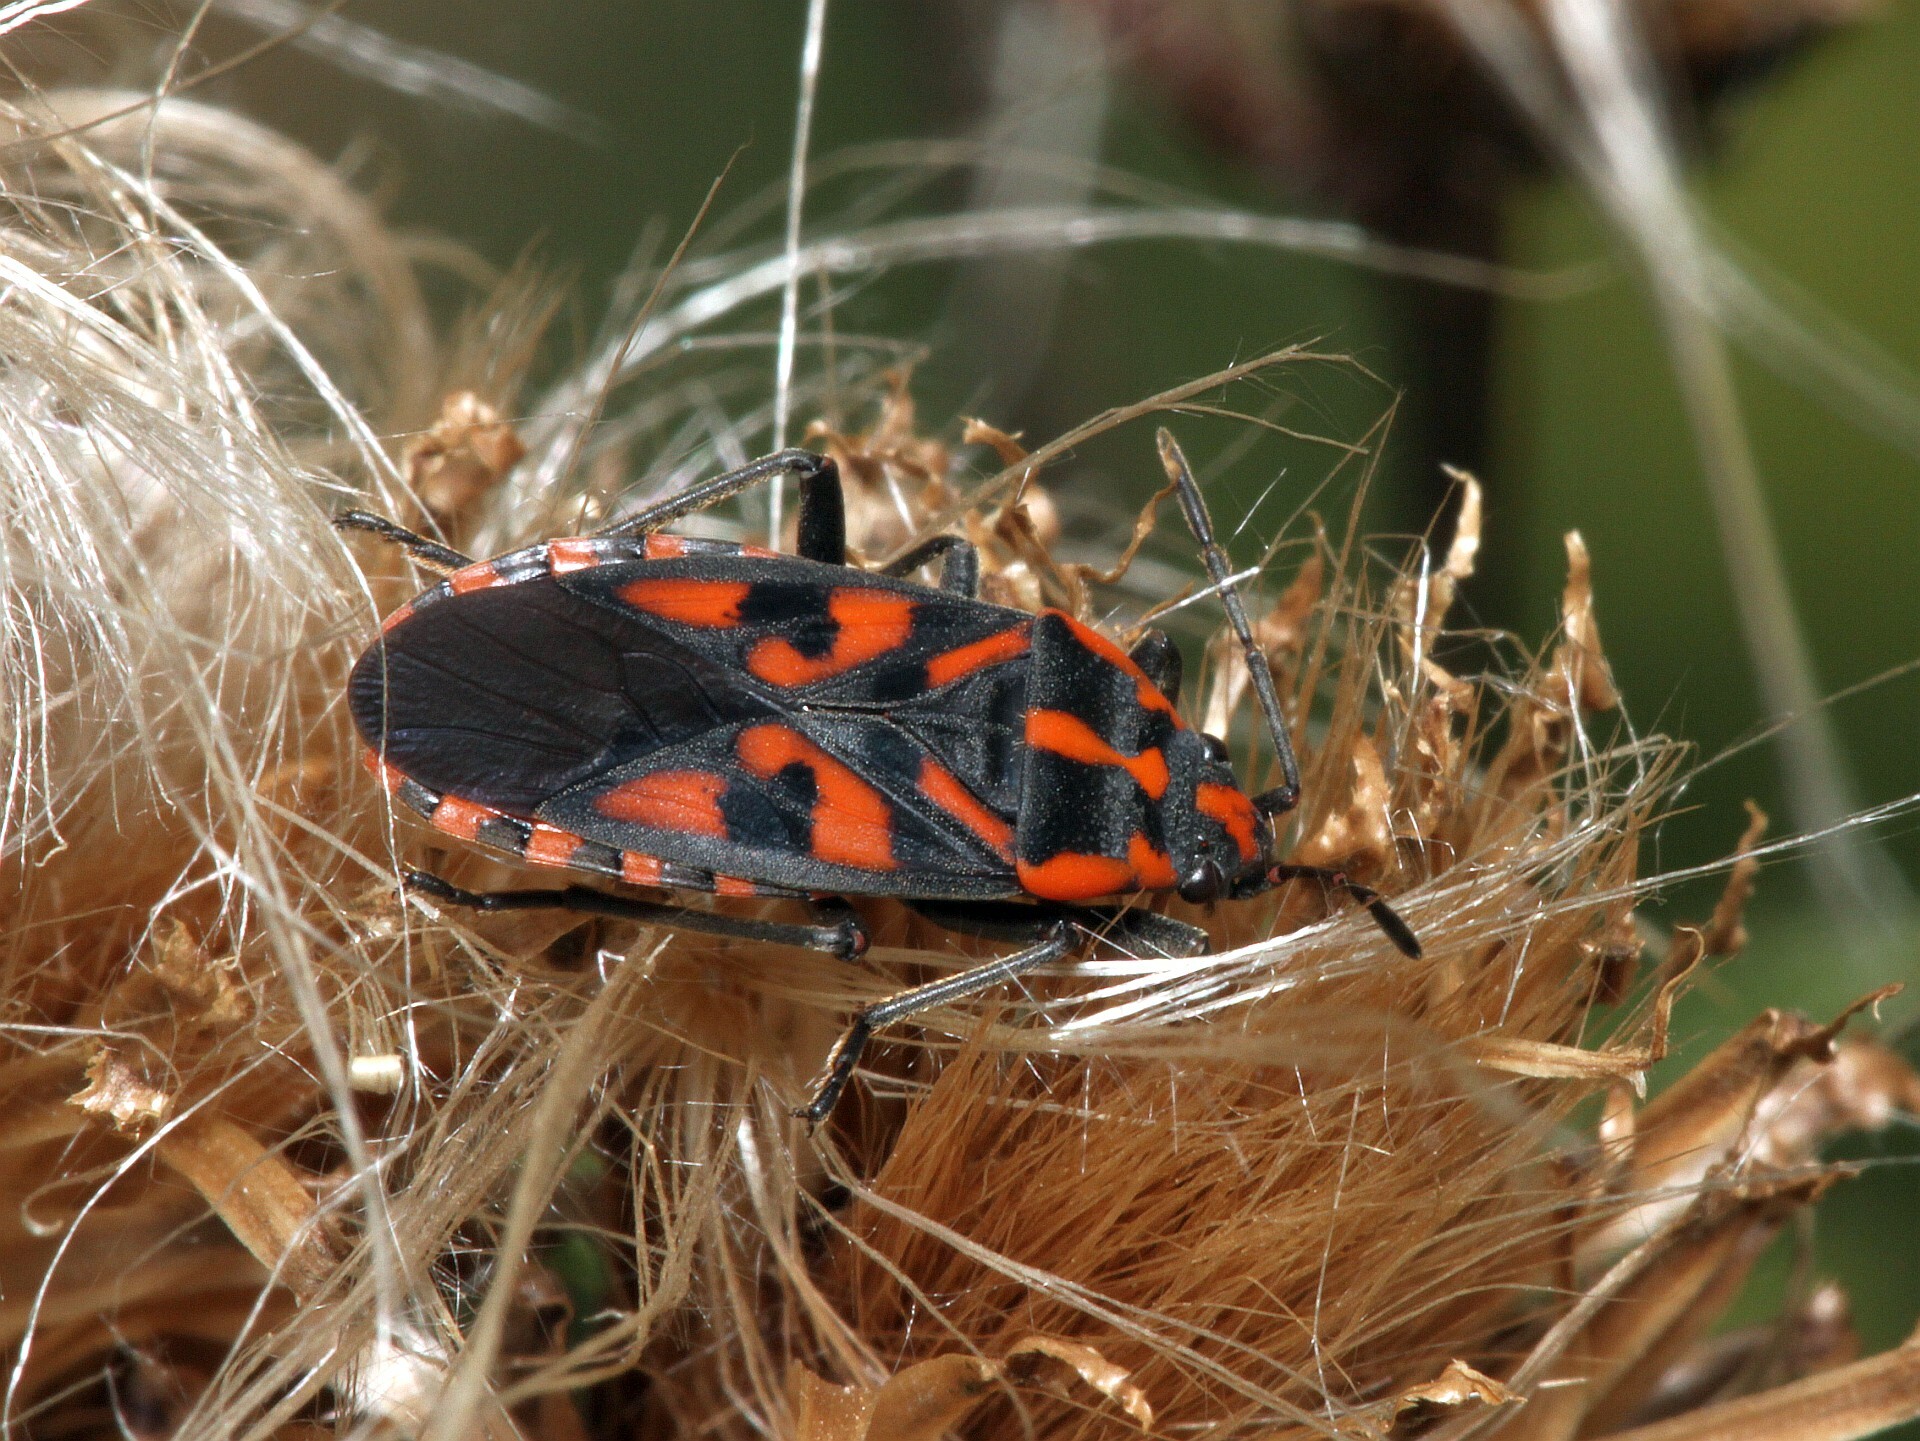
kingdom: Animalia
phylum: Arthropoda
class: Insecta
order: Hemiptera
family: Lygaeidae
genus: Spilostethus
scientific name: Spilostethus saxatilis
